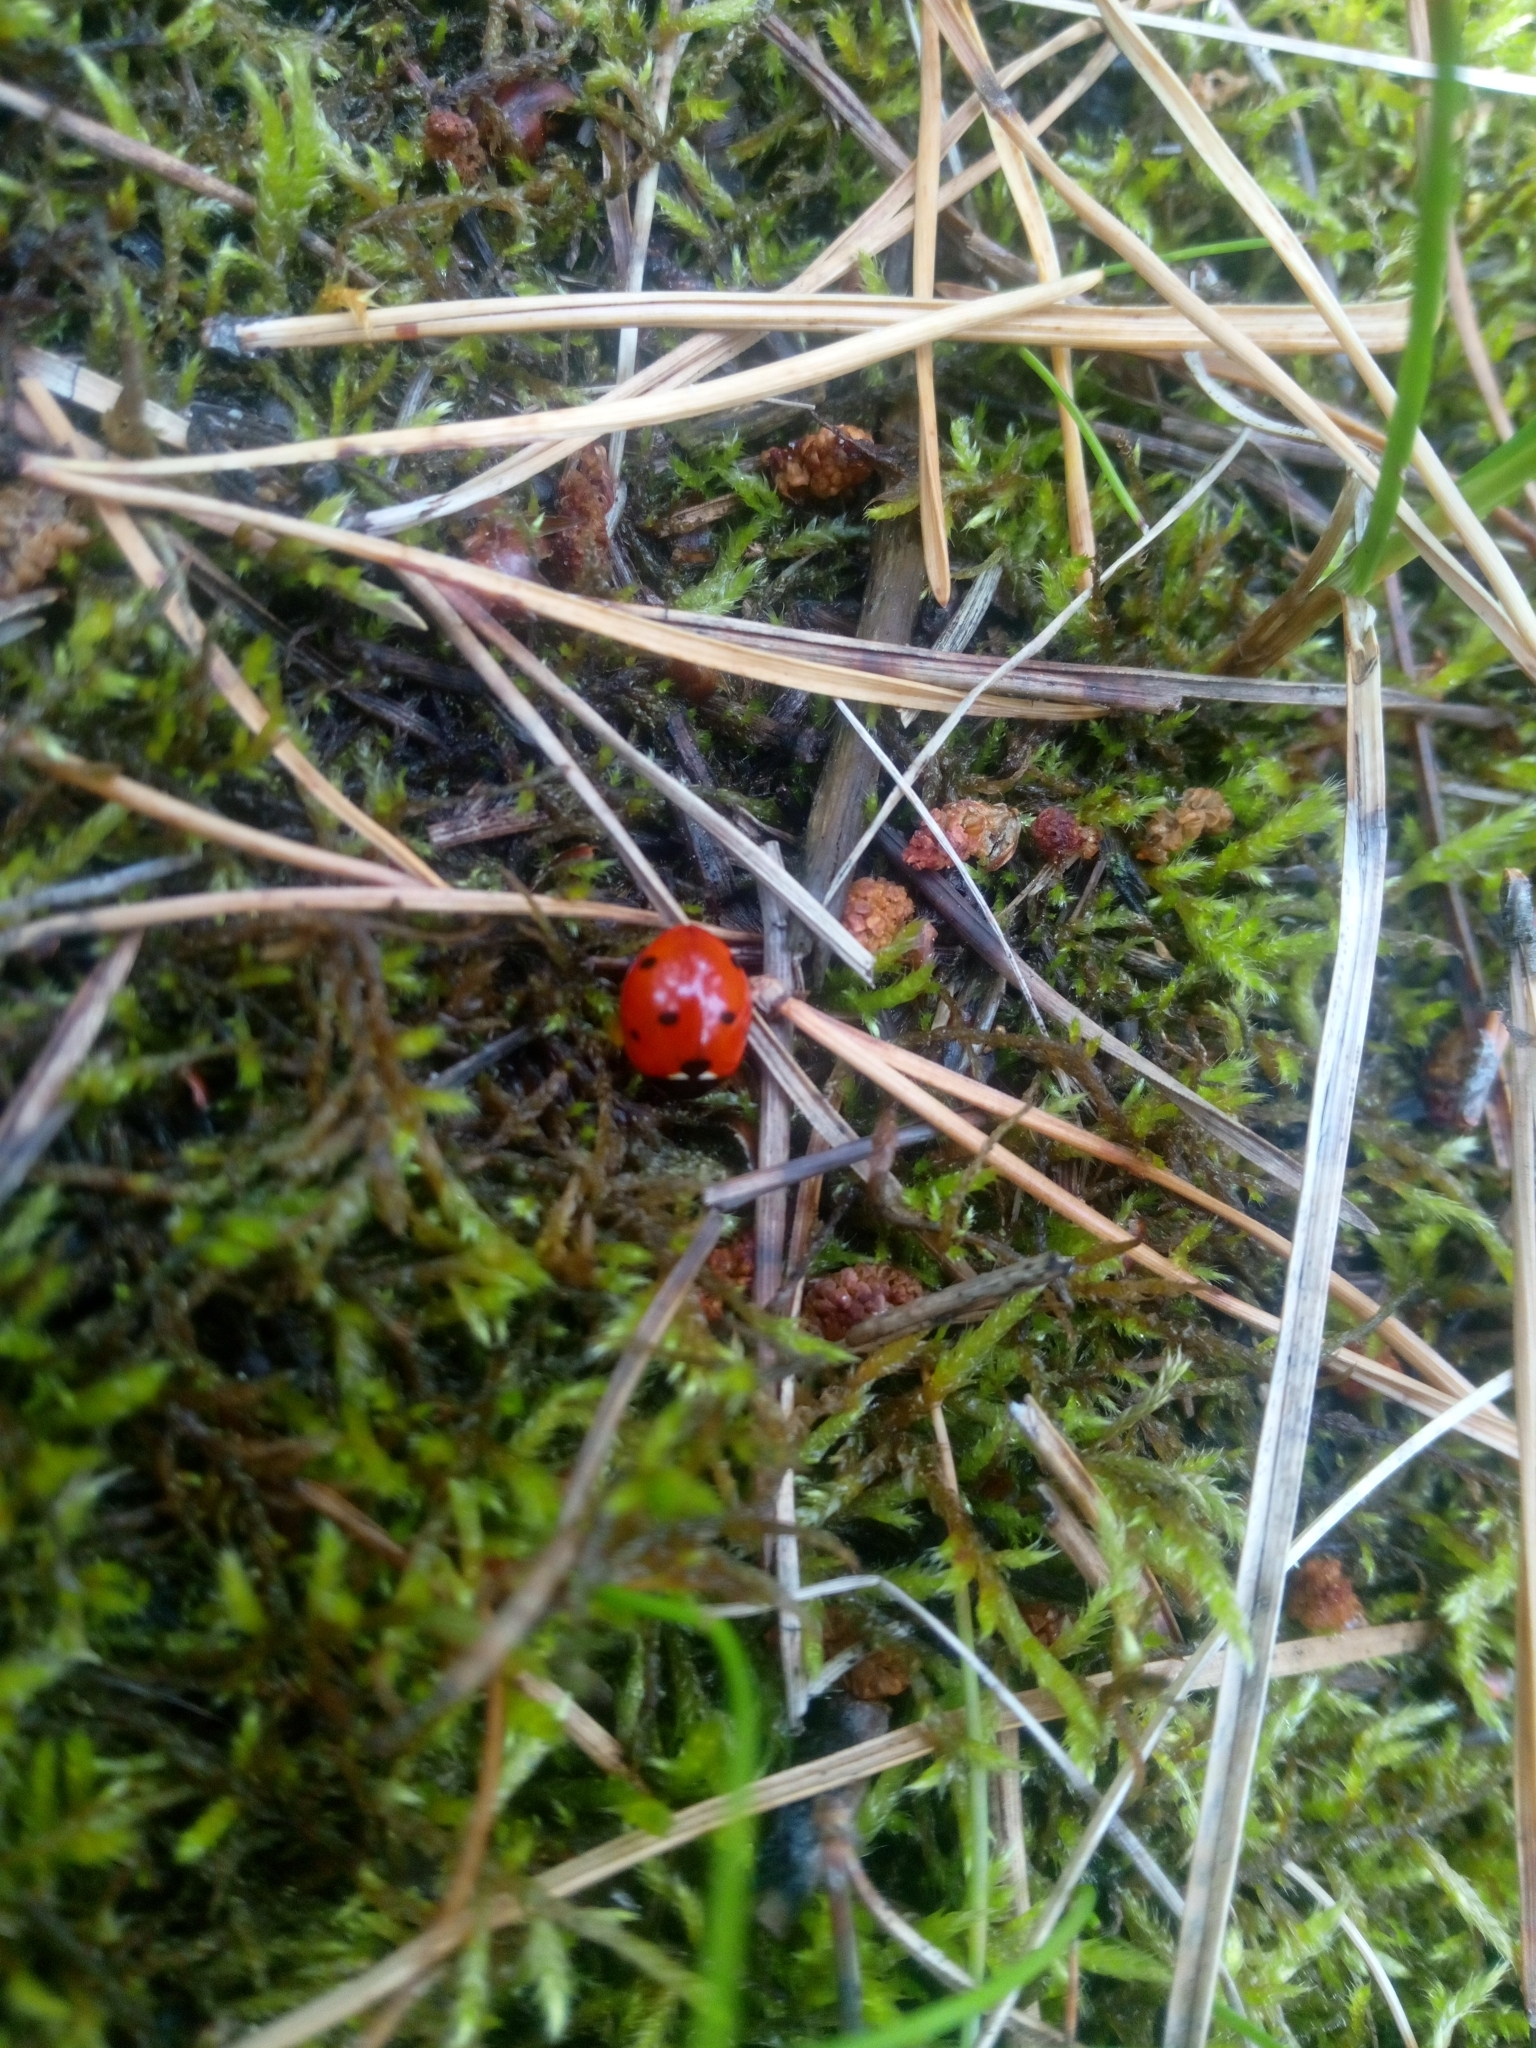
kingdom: Animalia
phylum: Arthropoda
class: Insecta
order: Coleoptera
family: Coccinellidae
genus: Coccinella
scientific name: Coccinella septempunctata
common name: Sevenspotted lady beetle
